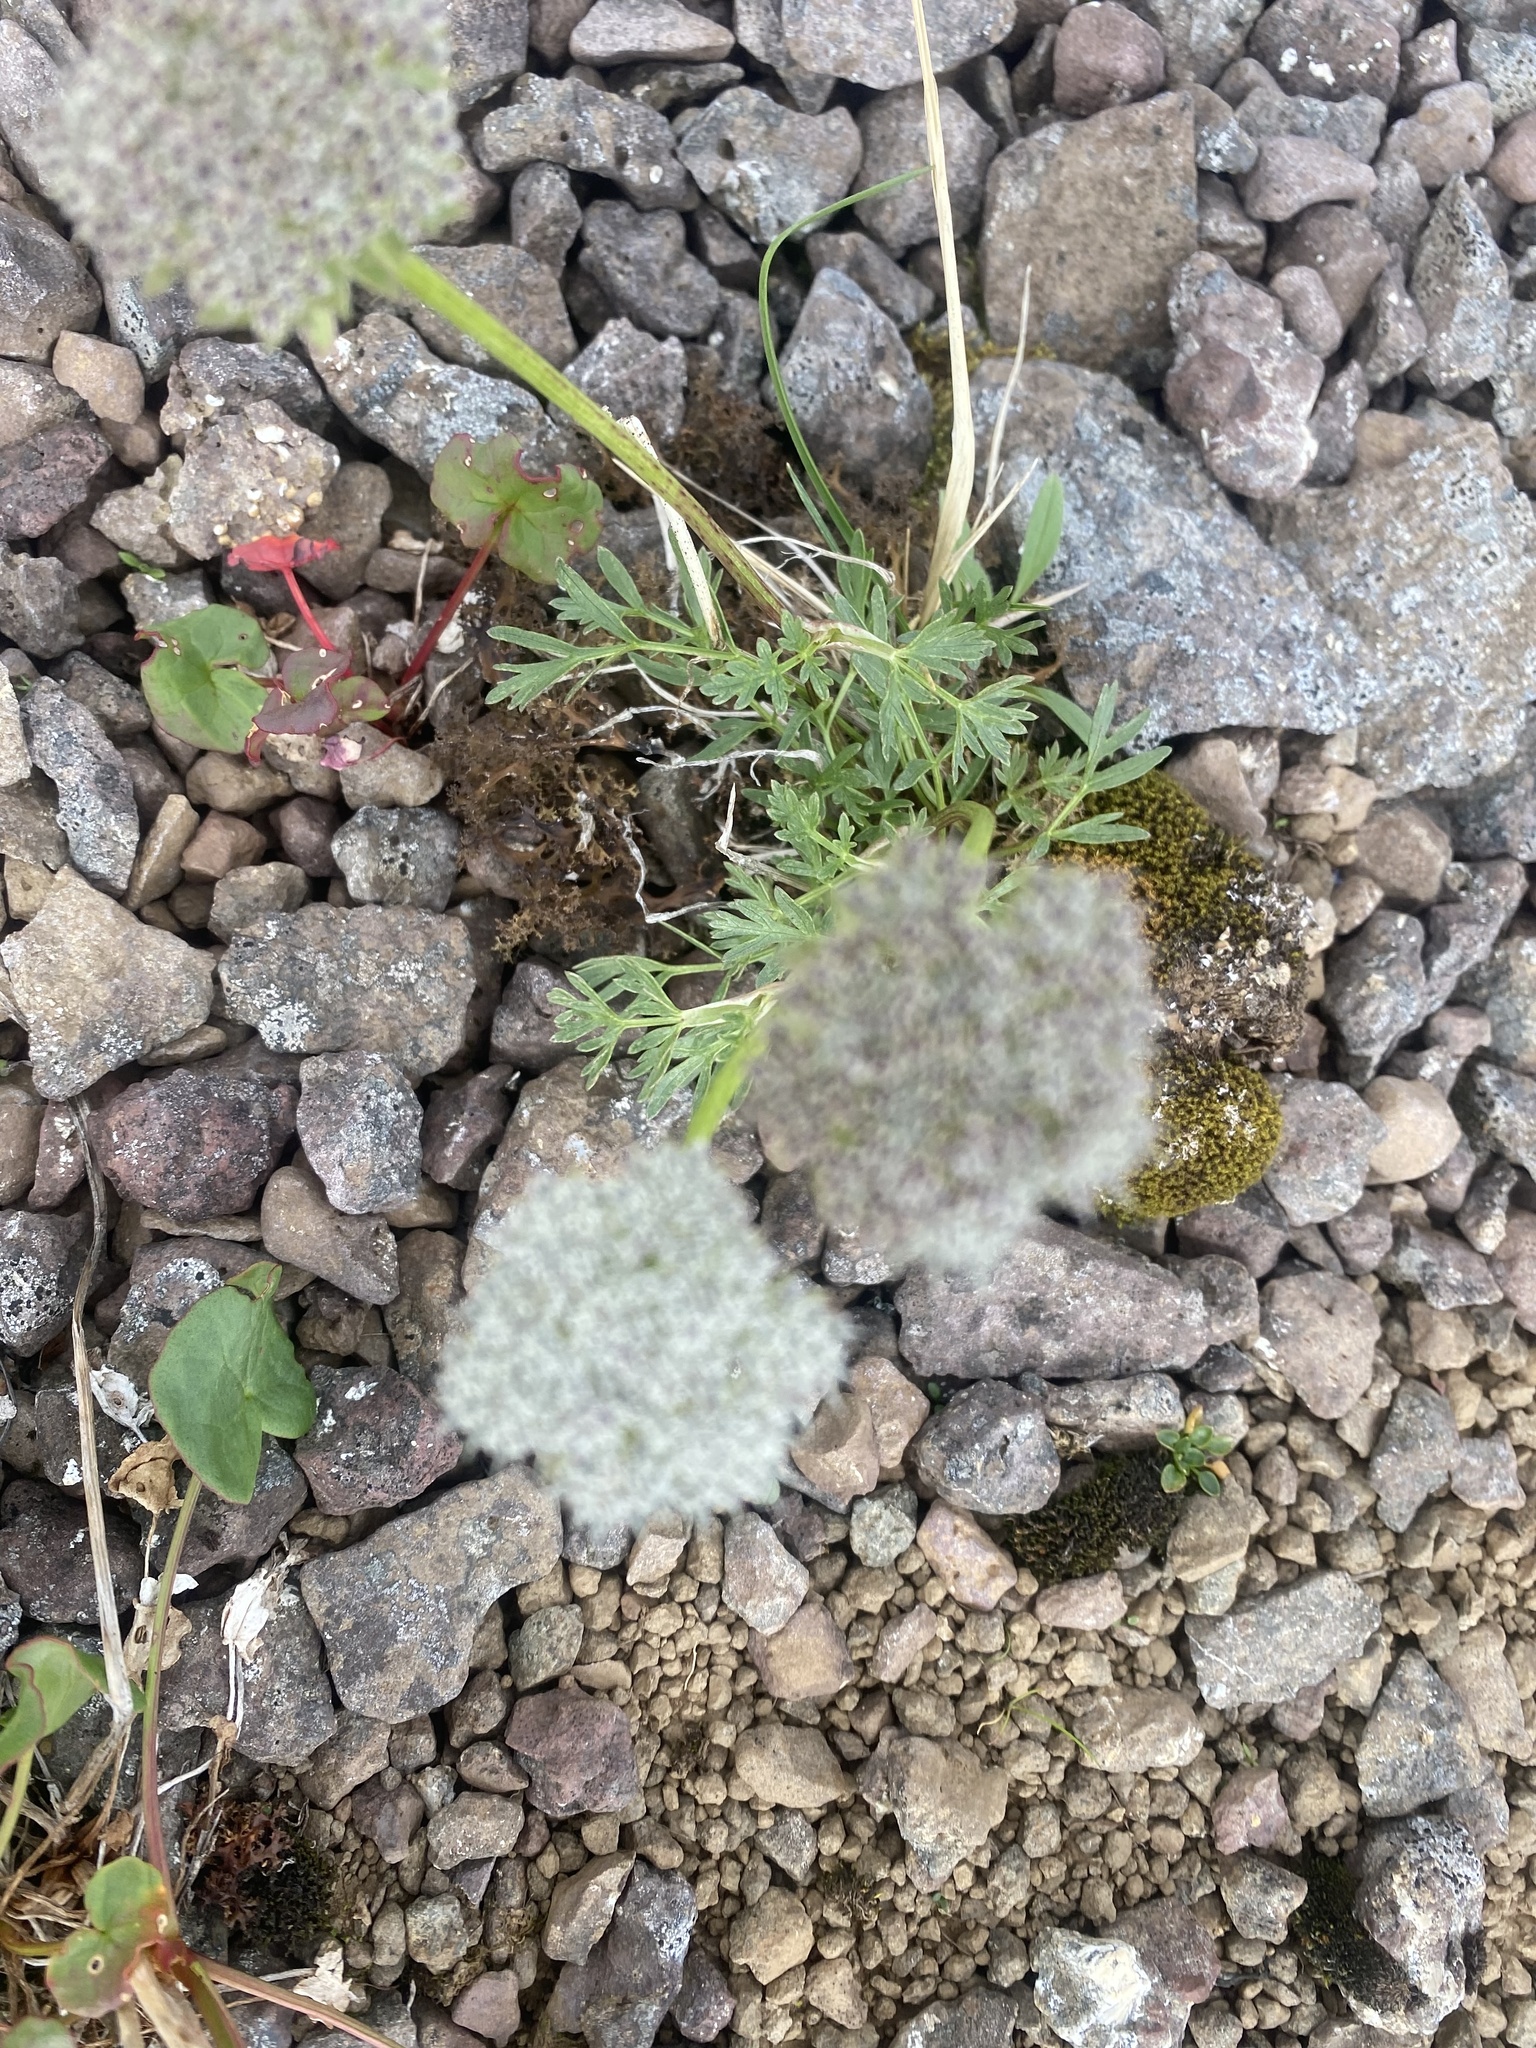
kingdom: Plantae
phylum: Tracheophyta
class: Magnoliopsida
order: Apiales
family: Apiaceae
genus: Pachypleurum
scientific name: Pachypleurum mutellinoides
